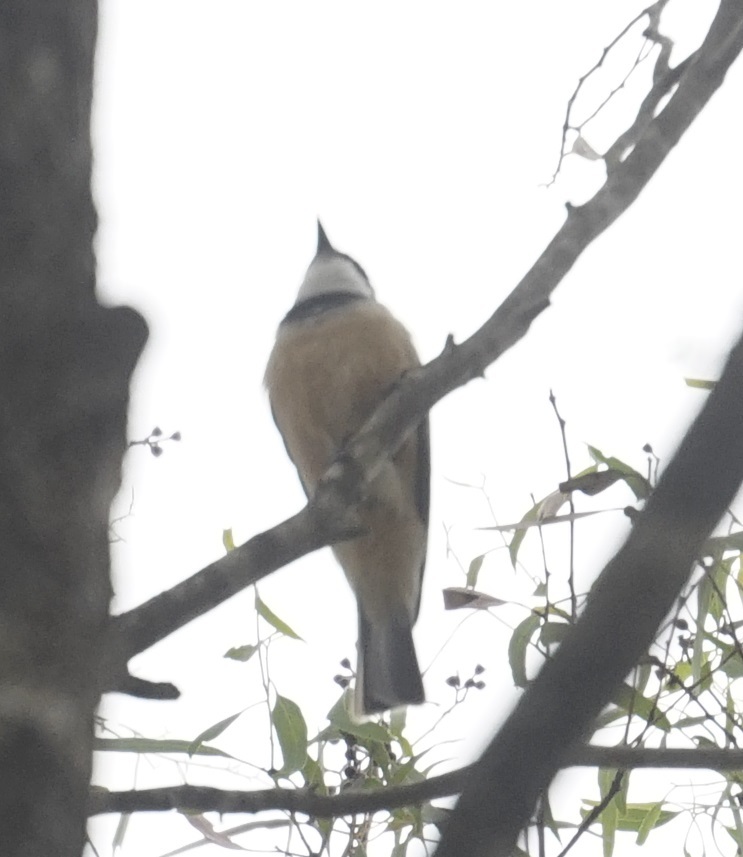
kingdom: Animalia
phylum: Chordata
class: Aves
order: Passeriformes
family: Pachycephalidae
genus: Pachycephala
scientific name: Pachycephala rufiventris
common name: Rufous whistler
